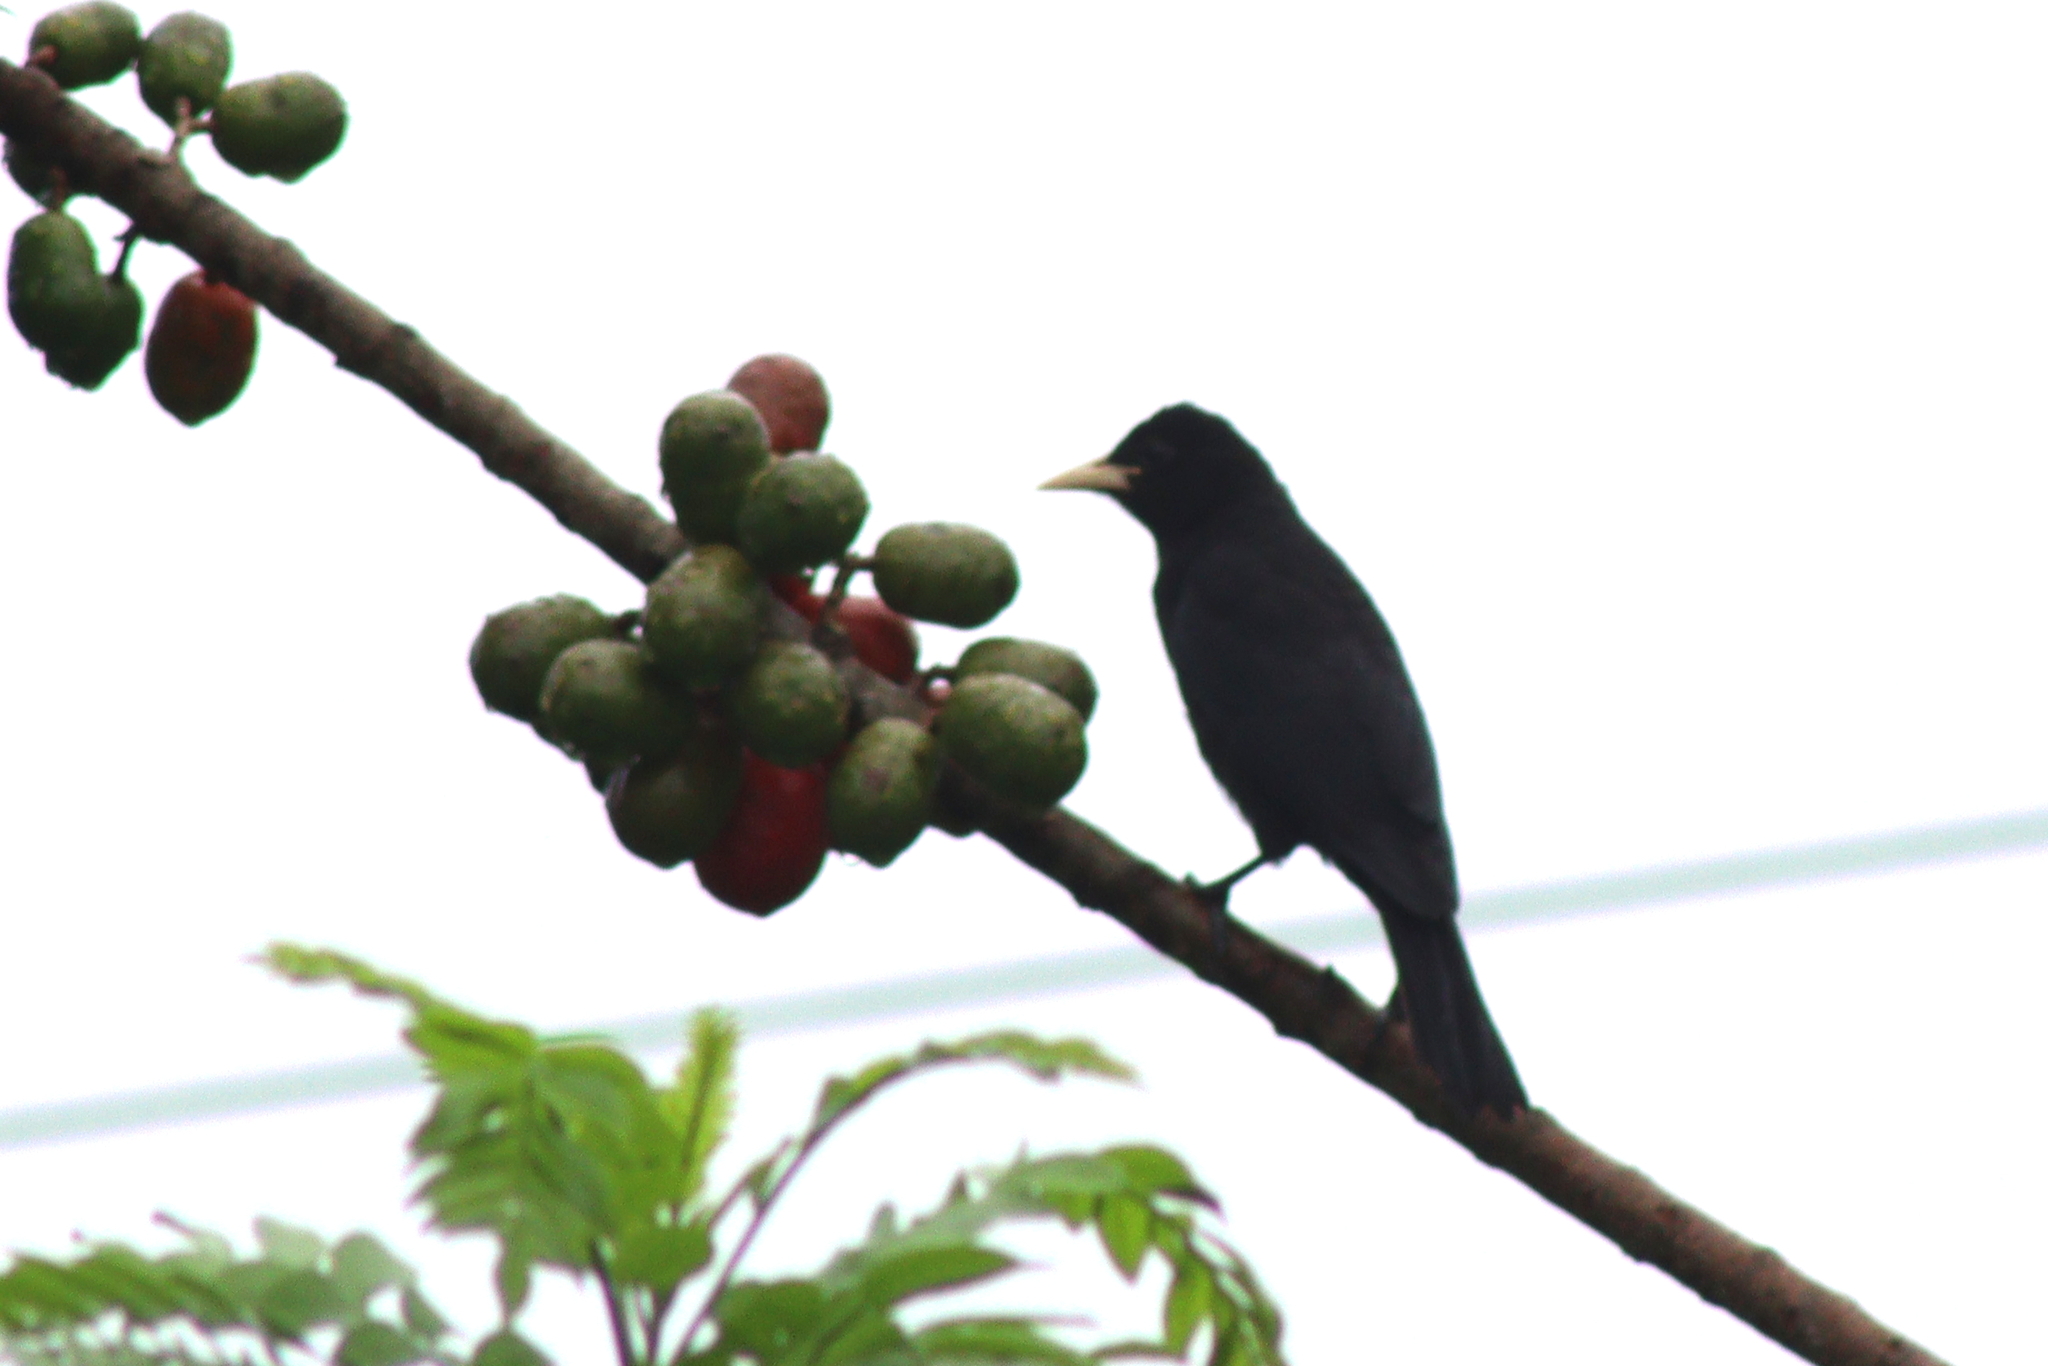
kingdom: Animalia
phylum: Chordata
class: Aves
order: Passeriformes
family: Icteridae
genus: Cacicus
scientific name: Cacicus haemorrhous
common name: Red-rumped cacique
